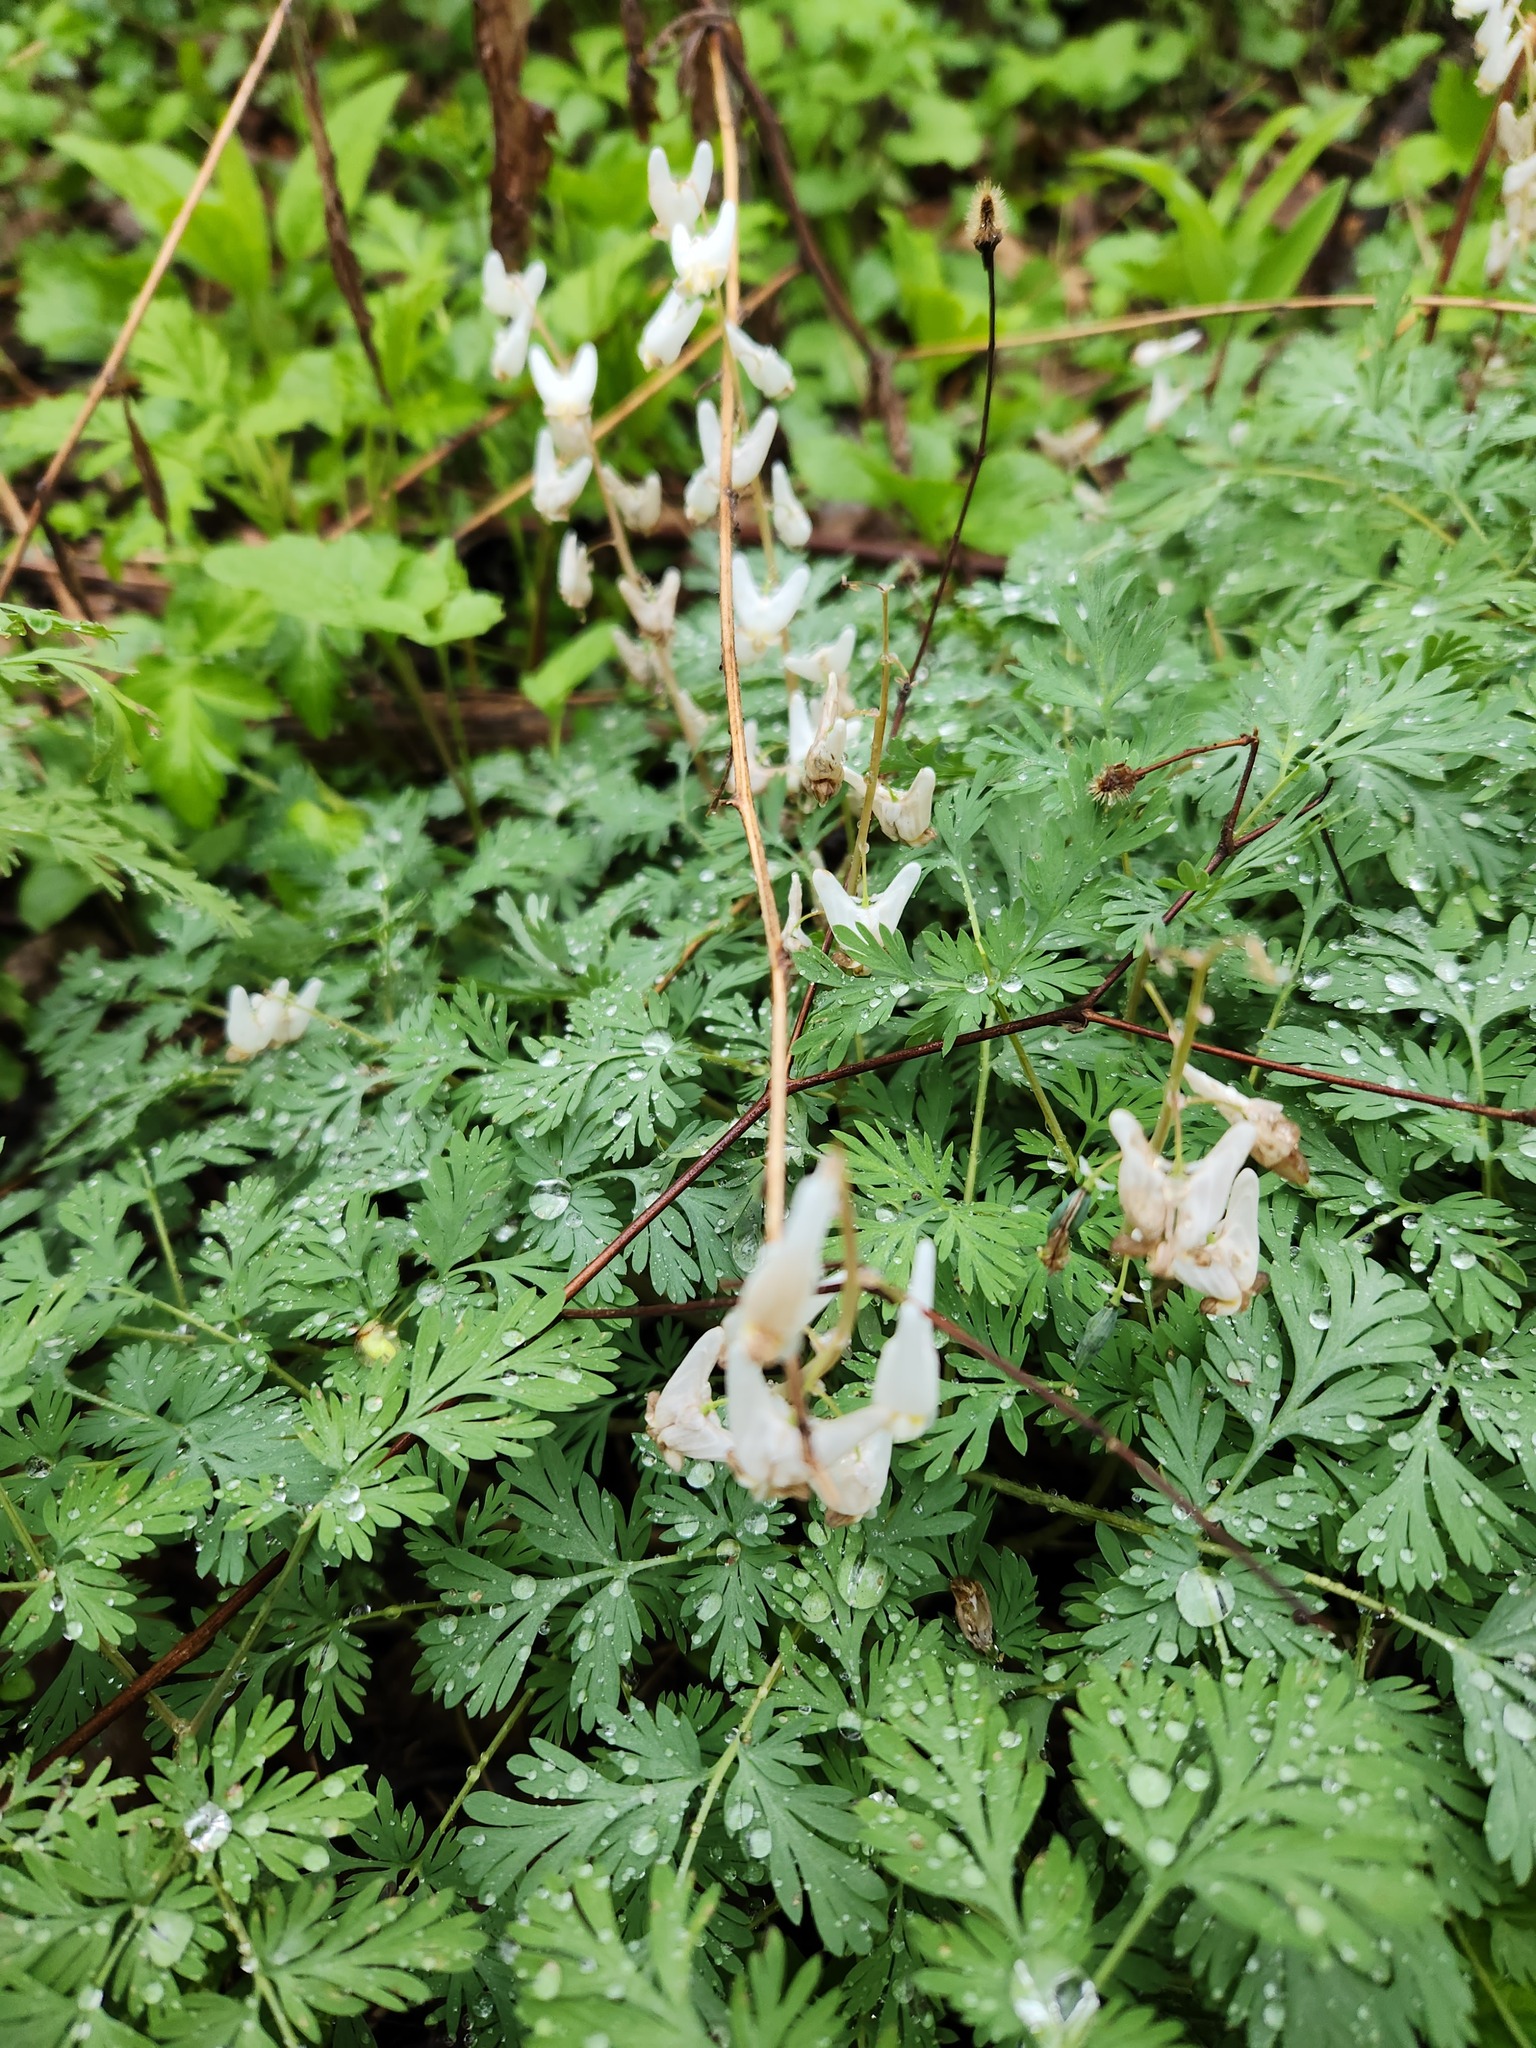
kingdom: Plantae
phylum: Tracheophyta
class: Magnoliopsida
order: Ranunculales
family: Papaveraceae
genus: Dicentra
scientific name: Dicentra cucullaria
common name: Dutchman's breeches
